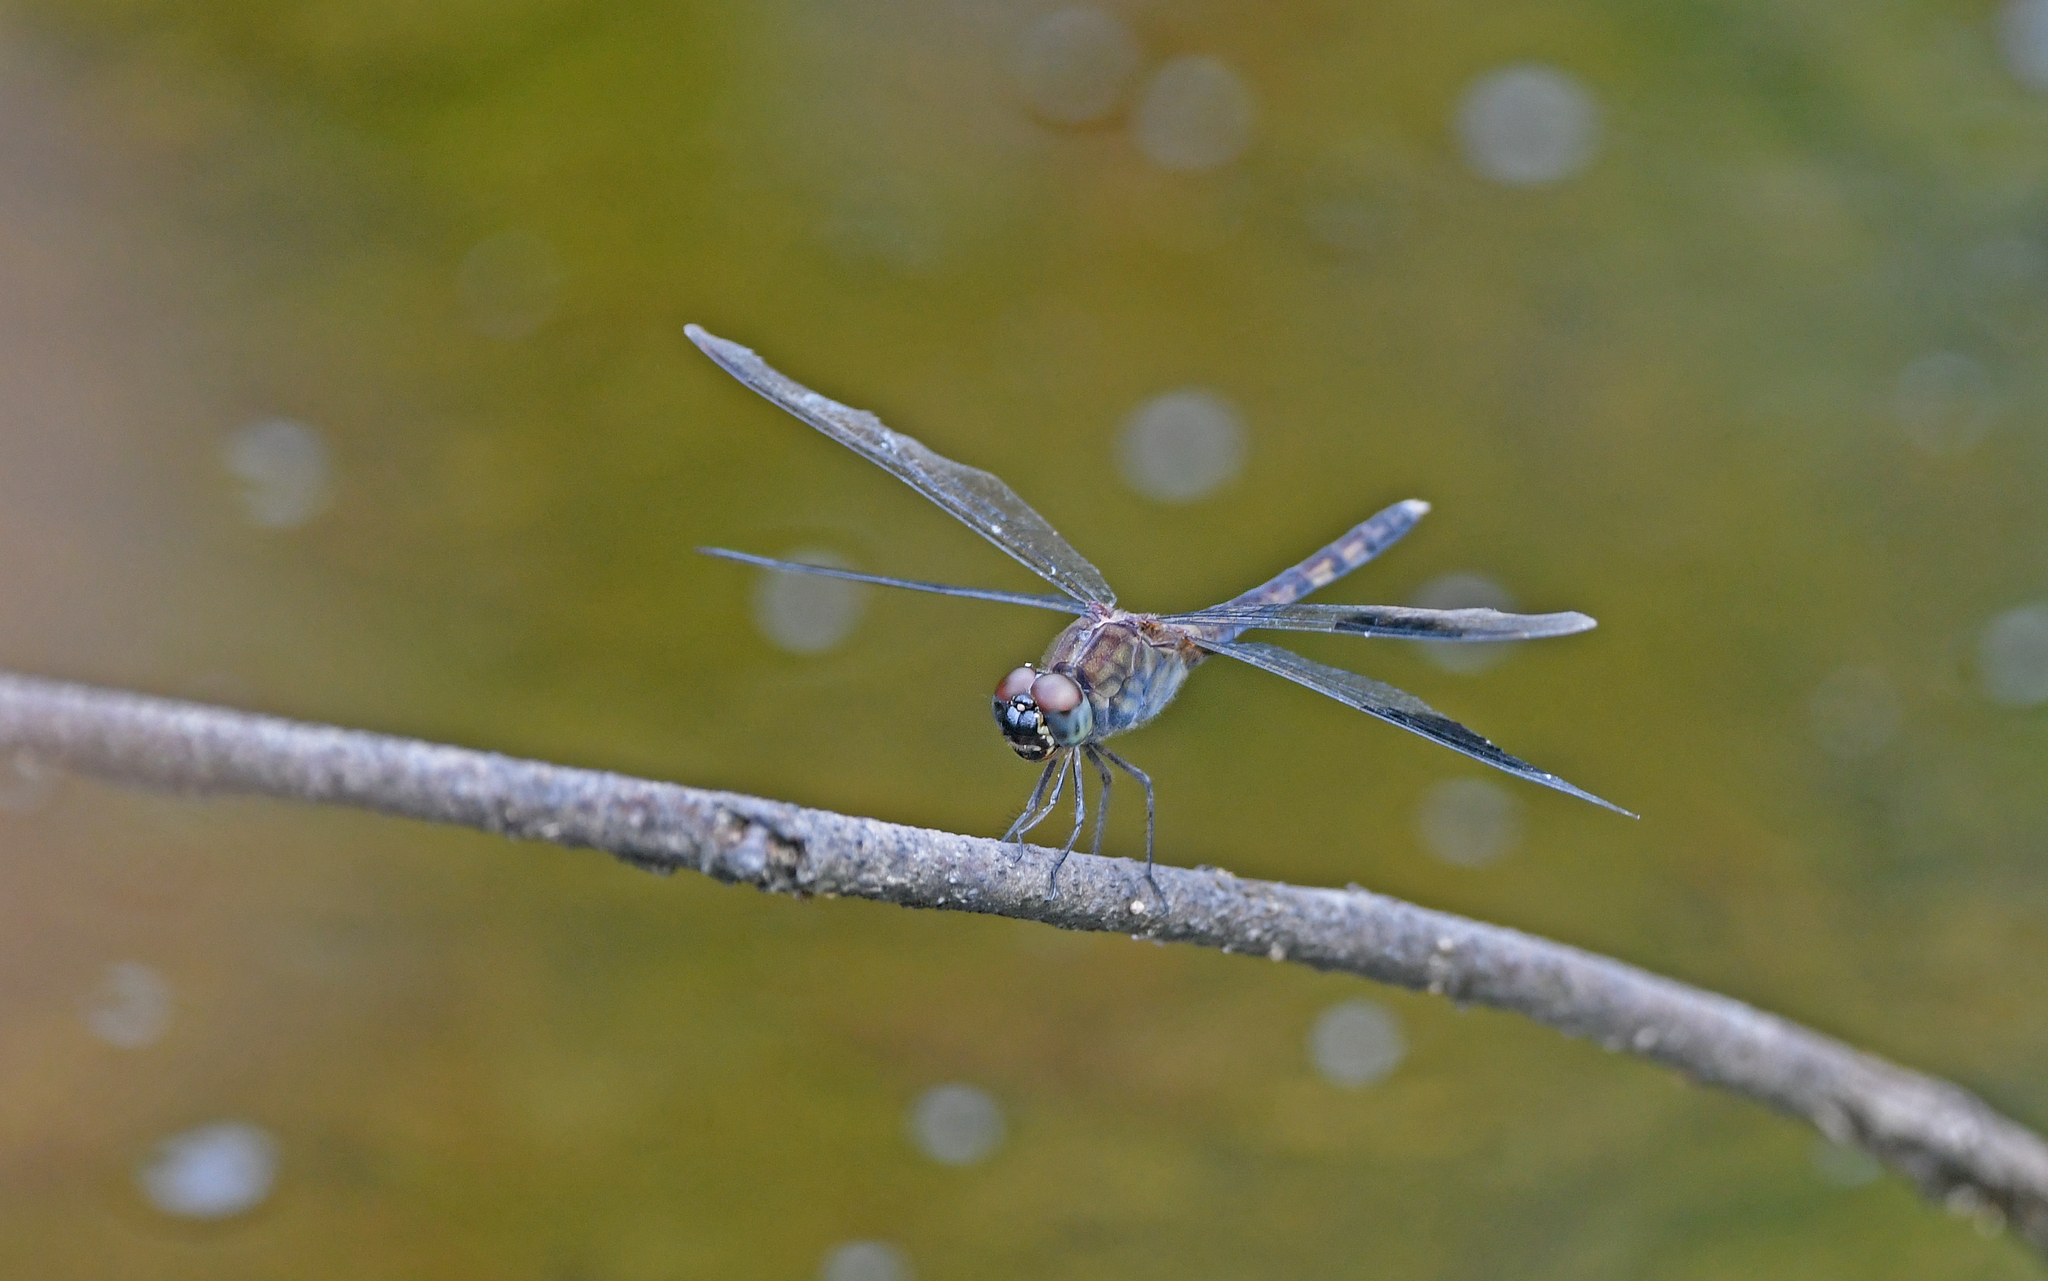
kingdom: Animalia
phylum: Arthropoda
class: Insecta
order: Odonata
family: Libellulidae
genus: Erythrodiplax
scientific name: Erythrodiplax umbrata
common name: Band-winged dragonlet
